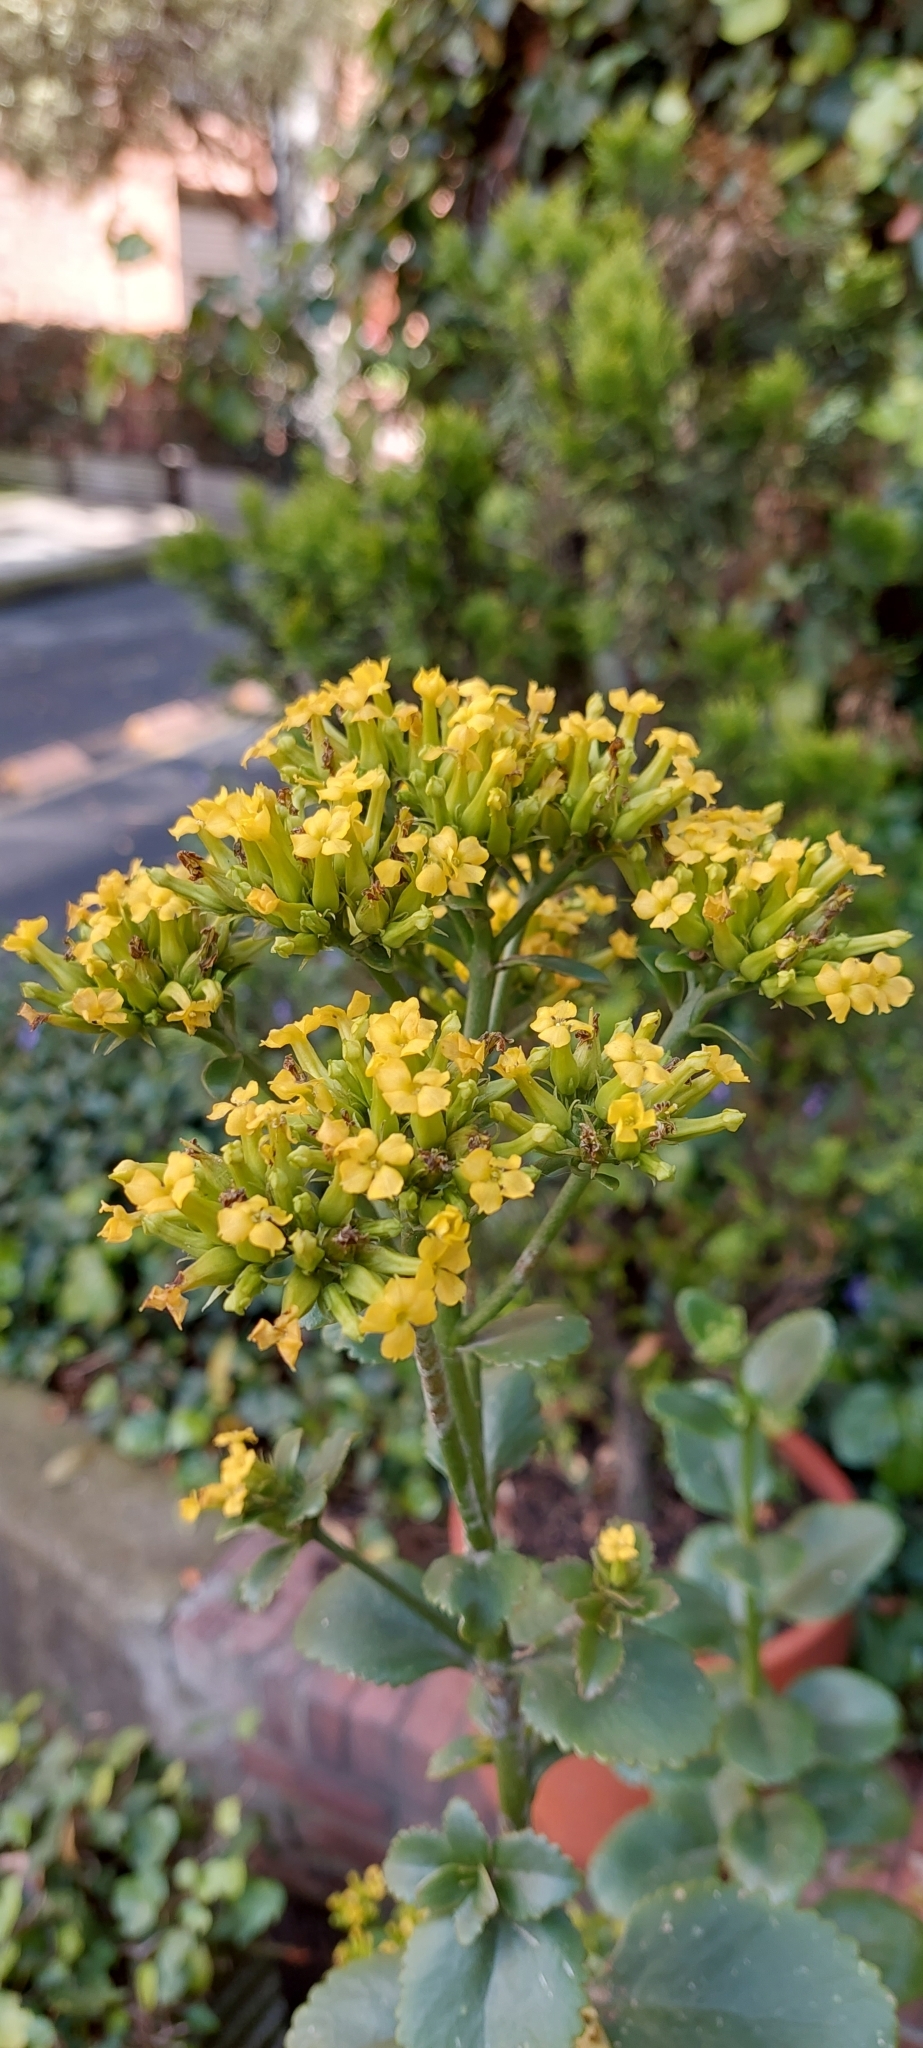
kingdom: Plantae
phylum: Tracheophyta
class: Magnoliopsida
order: Saxifragales
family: Crassulaceae
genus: Kalanchoe
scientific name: Kalanchoe densiflora
